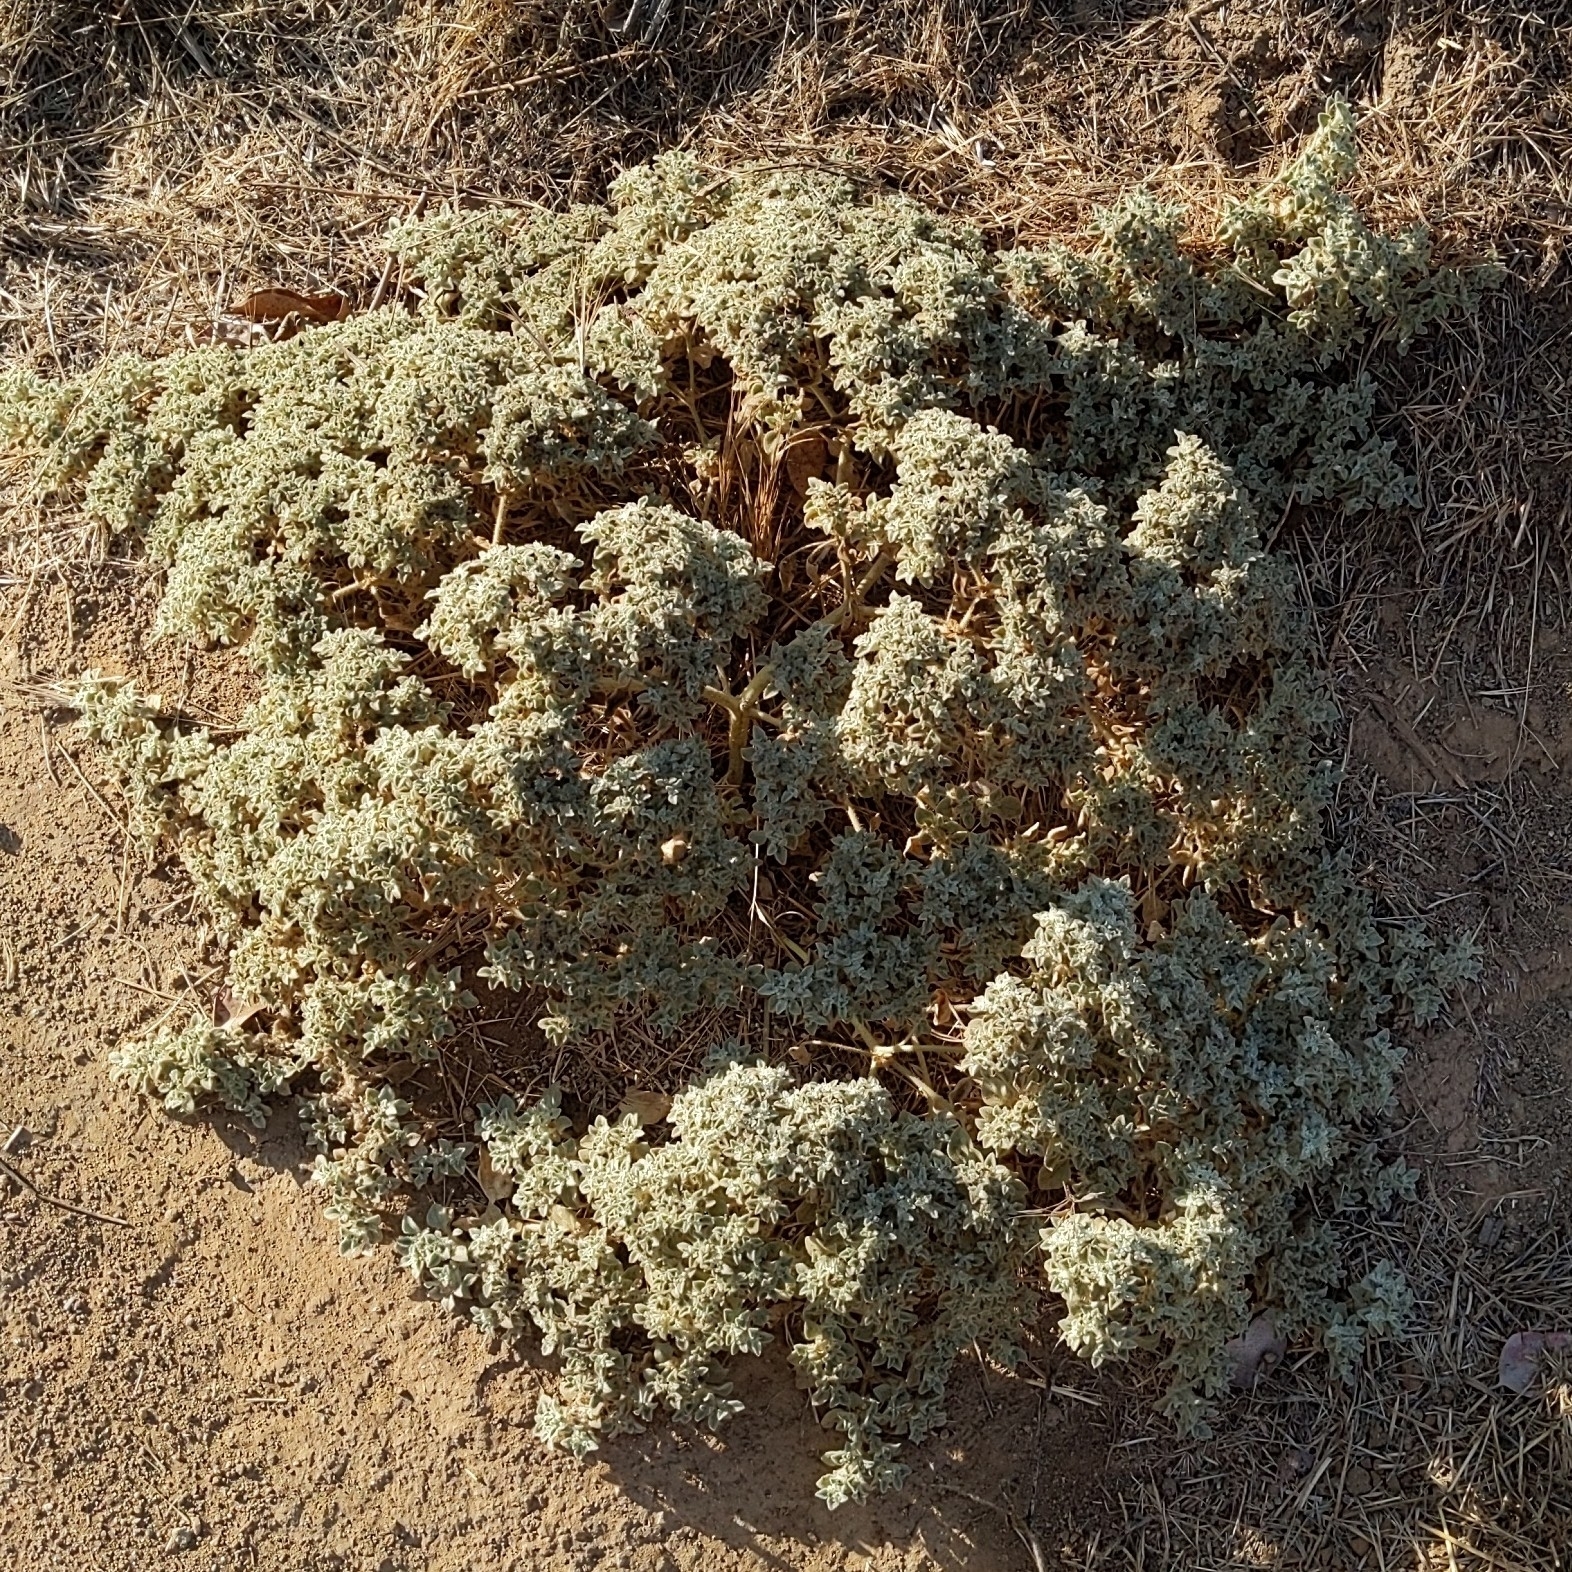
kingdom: Plantae
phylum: Tracheophyta
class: Magnoliopsida
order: Malpighiales
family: Euphorbiaceae
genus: Croton
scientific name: Croton setiger
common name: Dove weed
